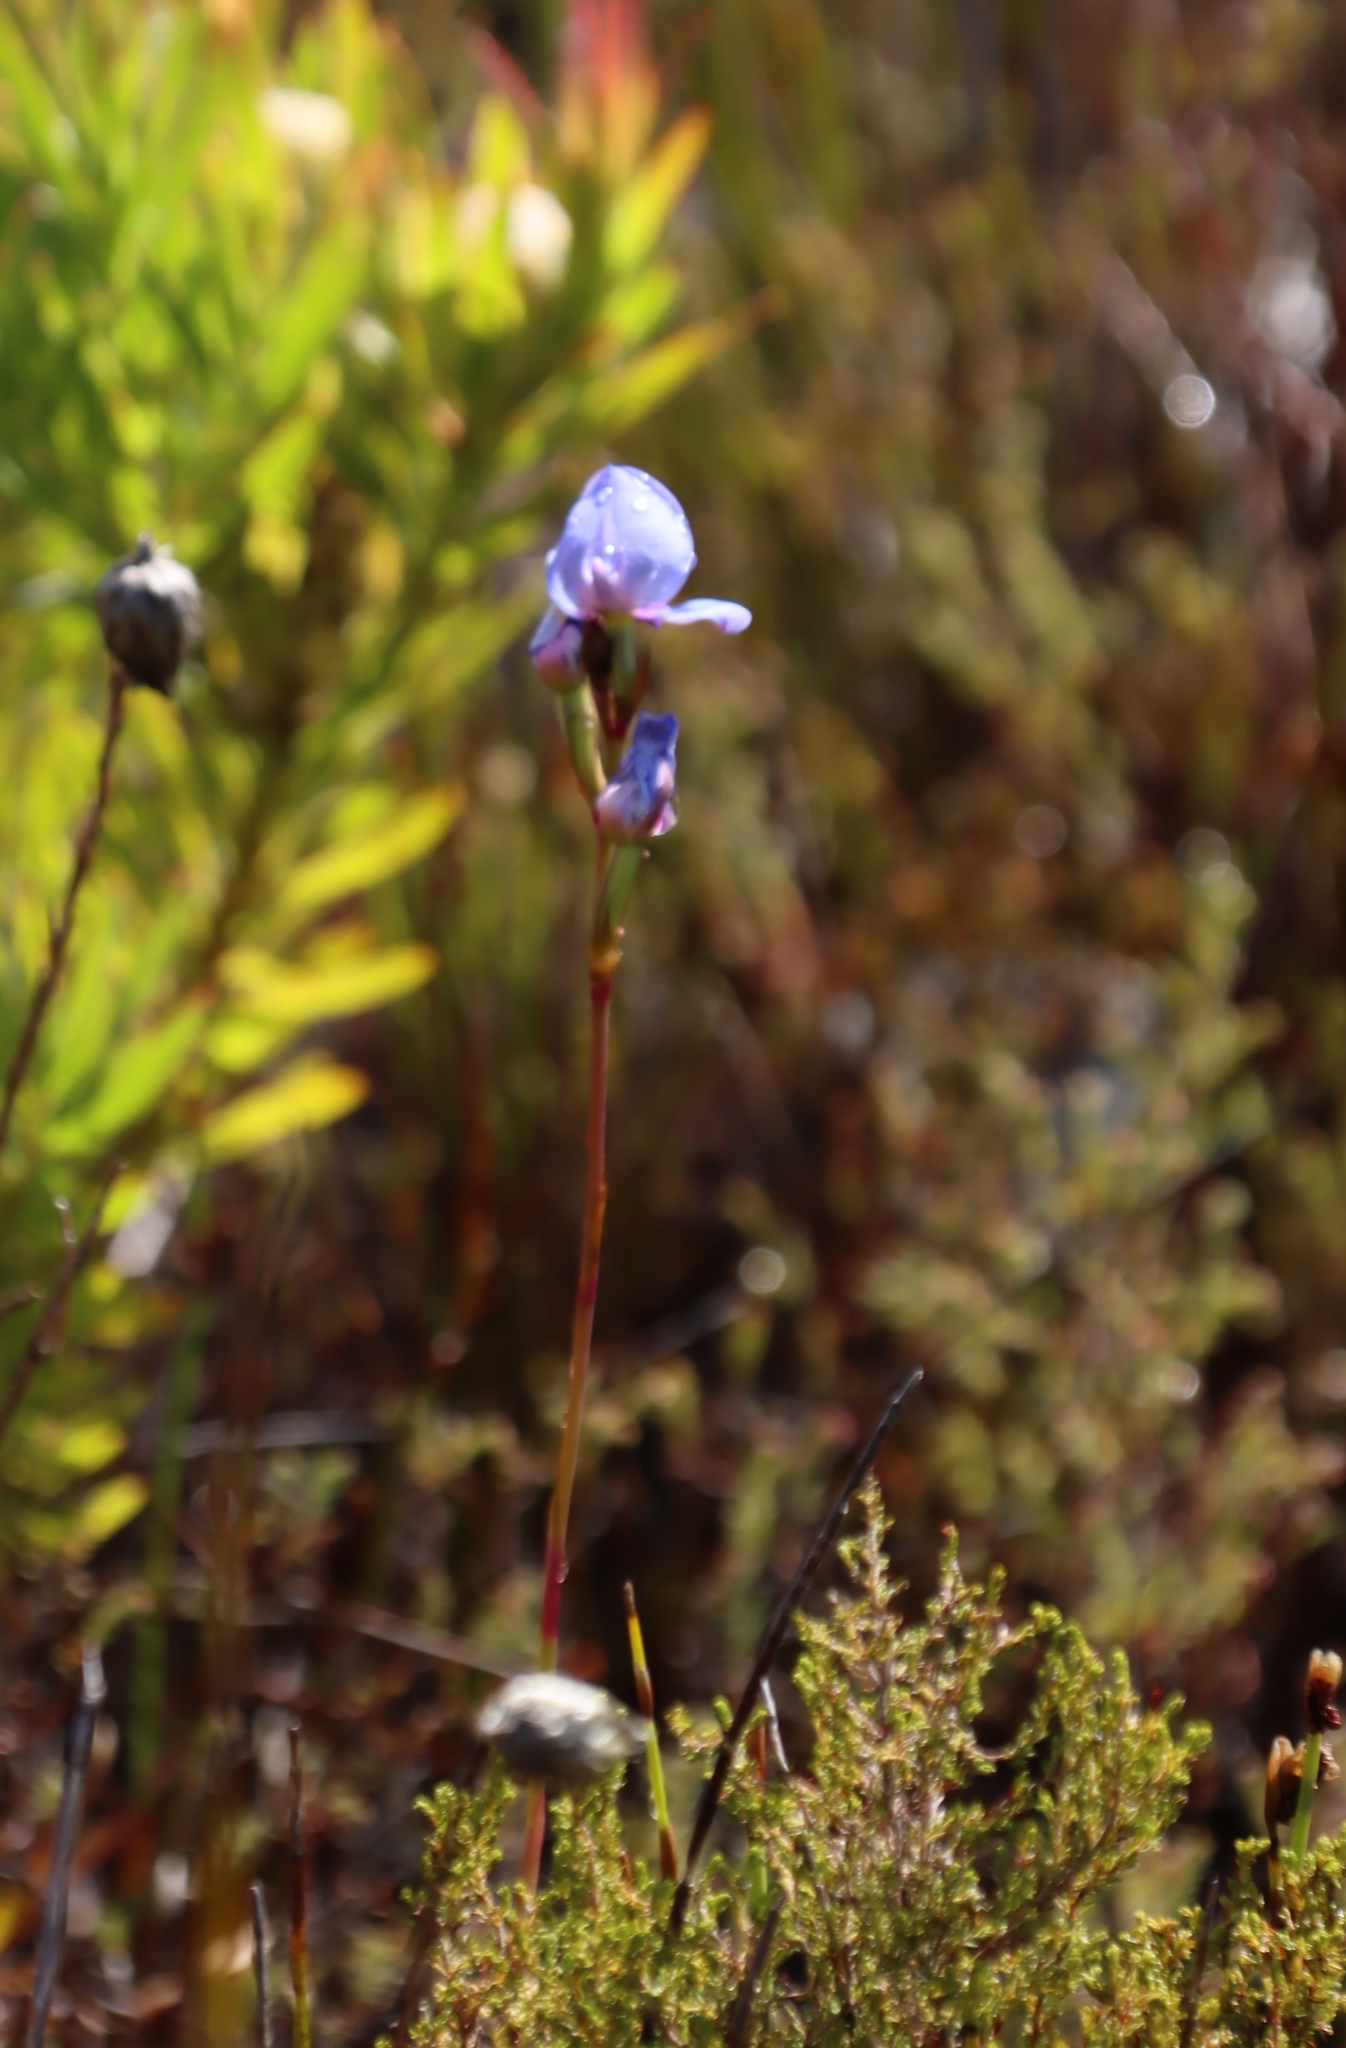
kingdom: Plantae
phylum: Tracheophyta
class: Liliopsida
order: Asparagales
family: Orchidaceae
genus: Disa
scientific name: Disa graminifolia
